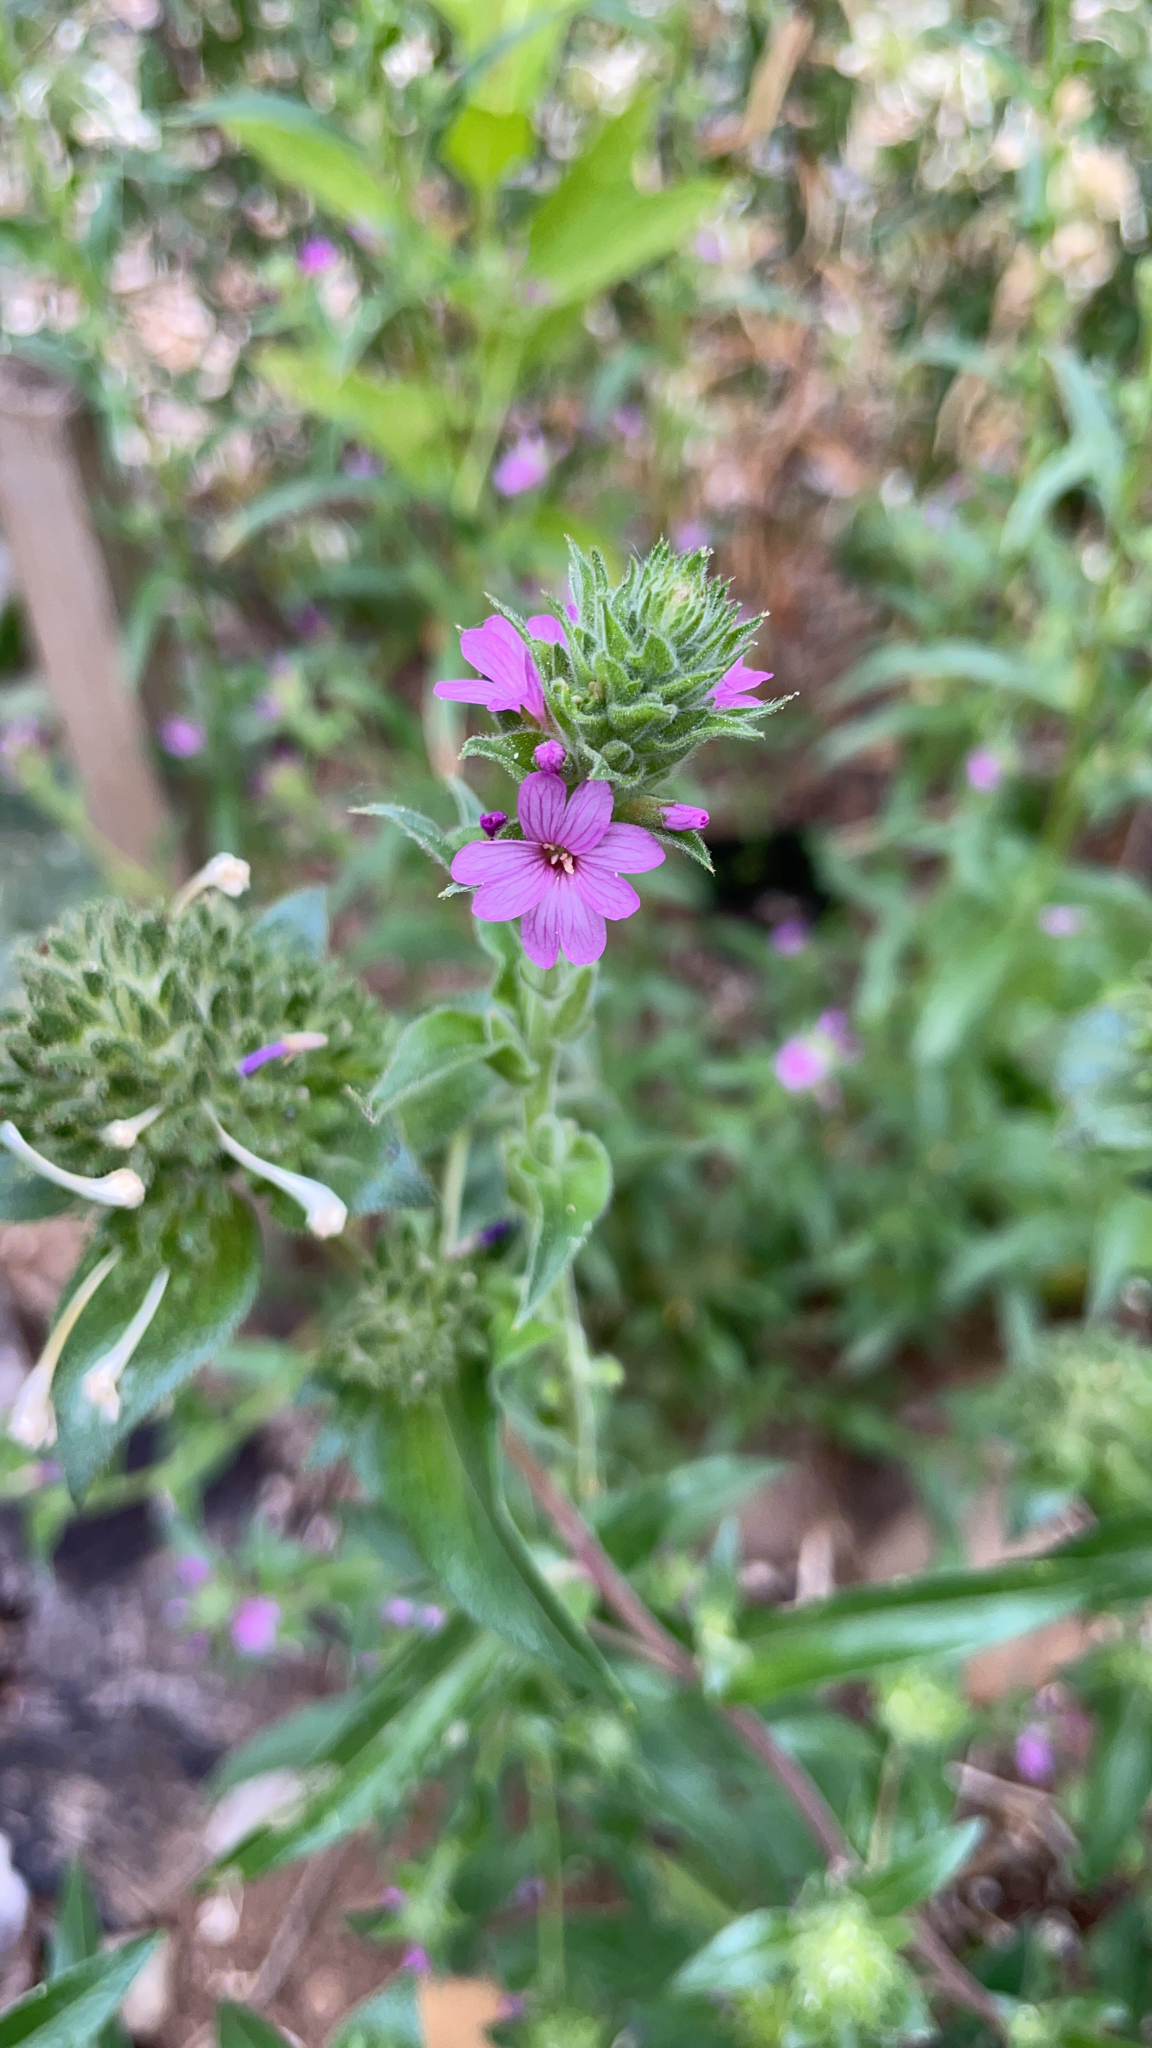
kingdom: Plantae
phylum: Tracheophyta
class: Magnoliopsida
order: Myrtales
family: Onagraceae
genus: Epilobium
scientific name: Epilobium densiflorum
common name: Dense spike-primrose
